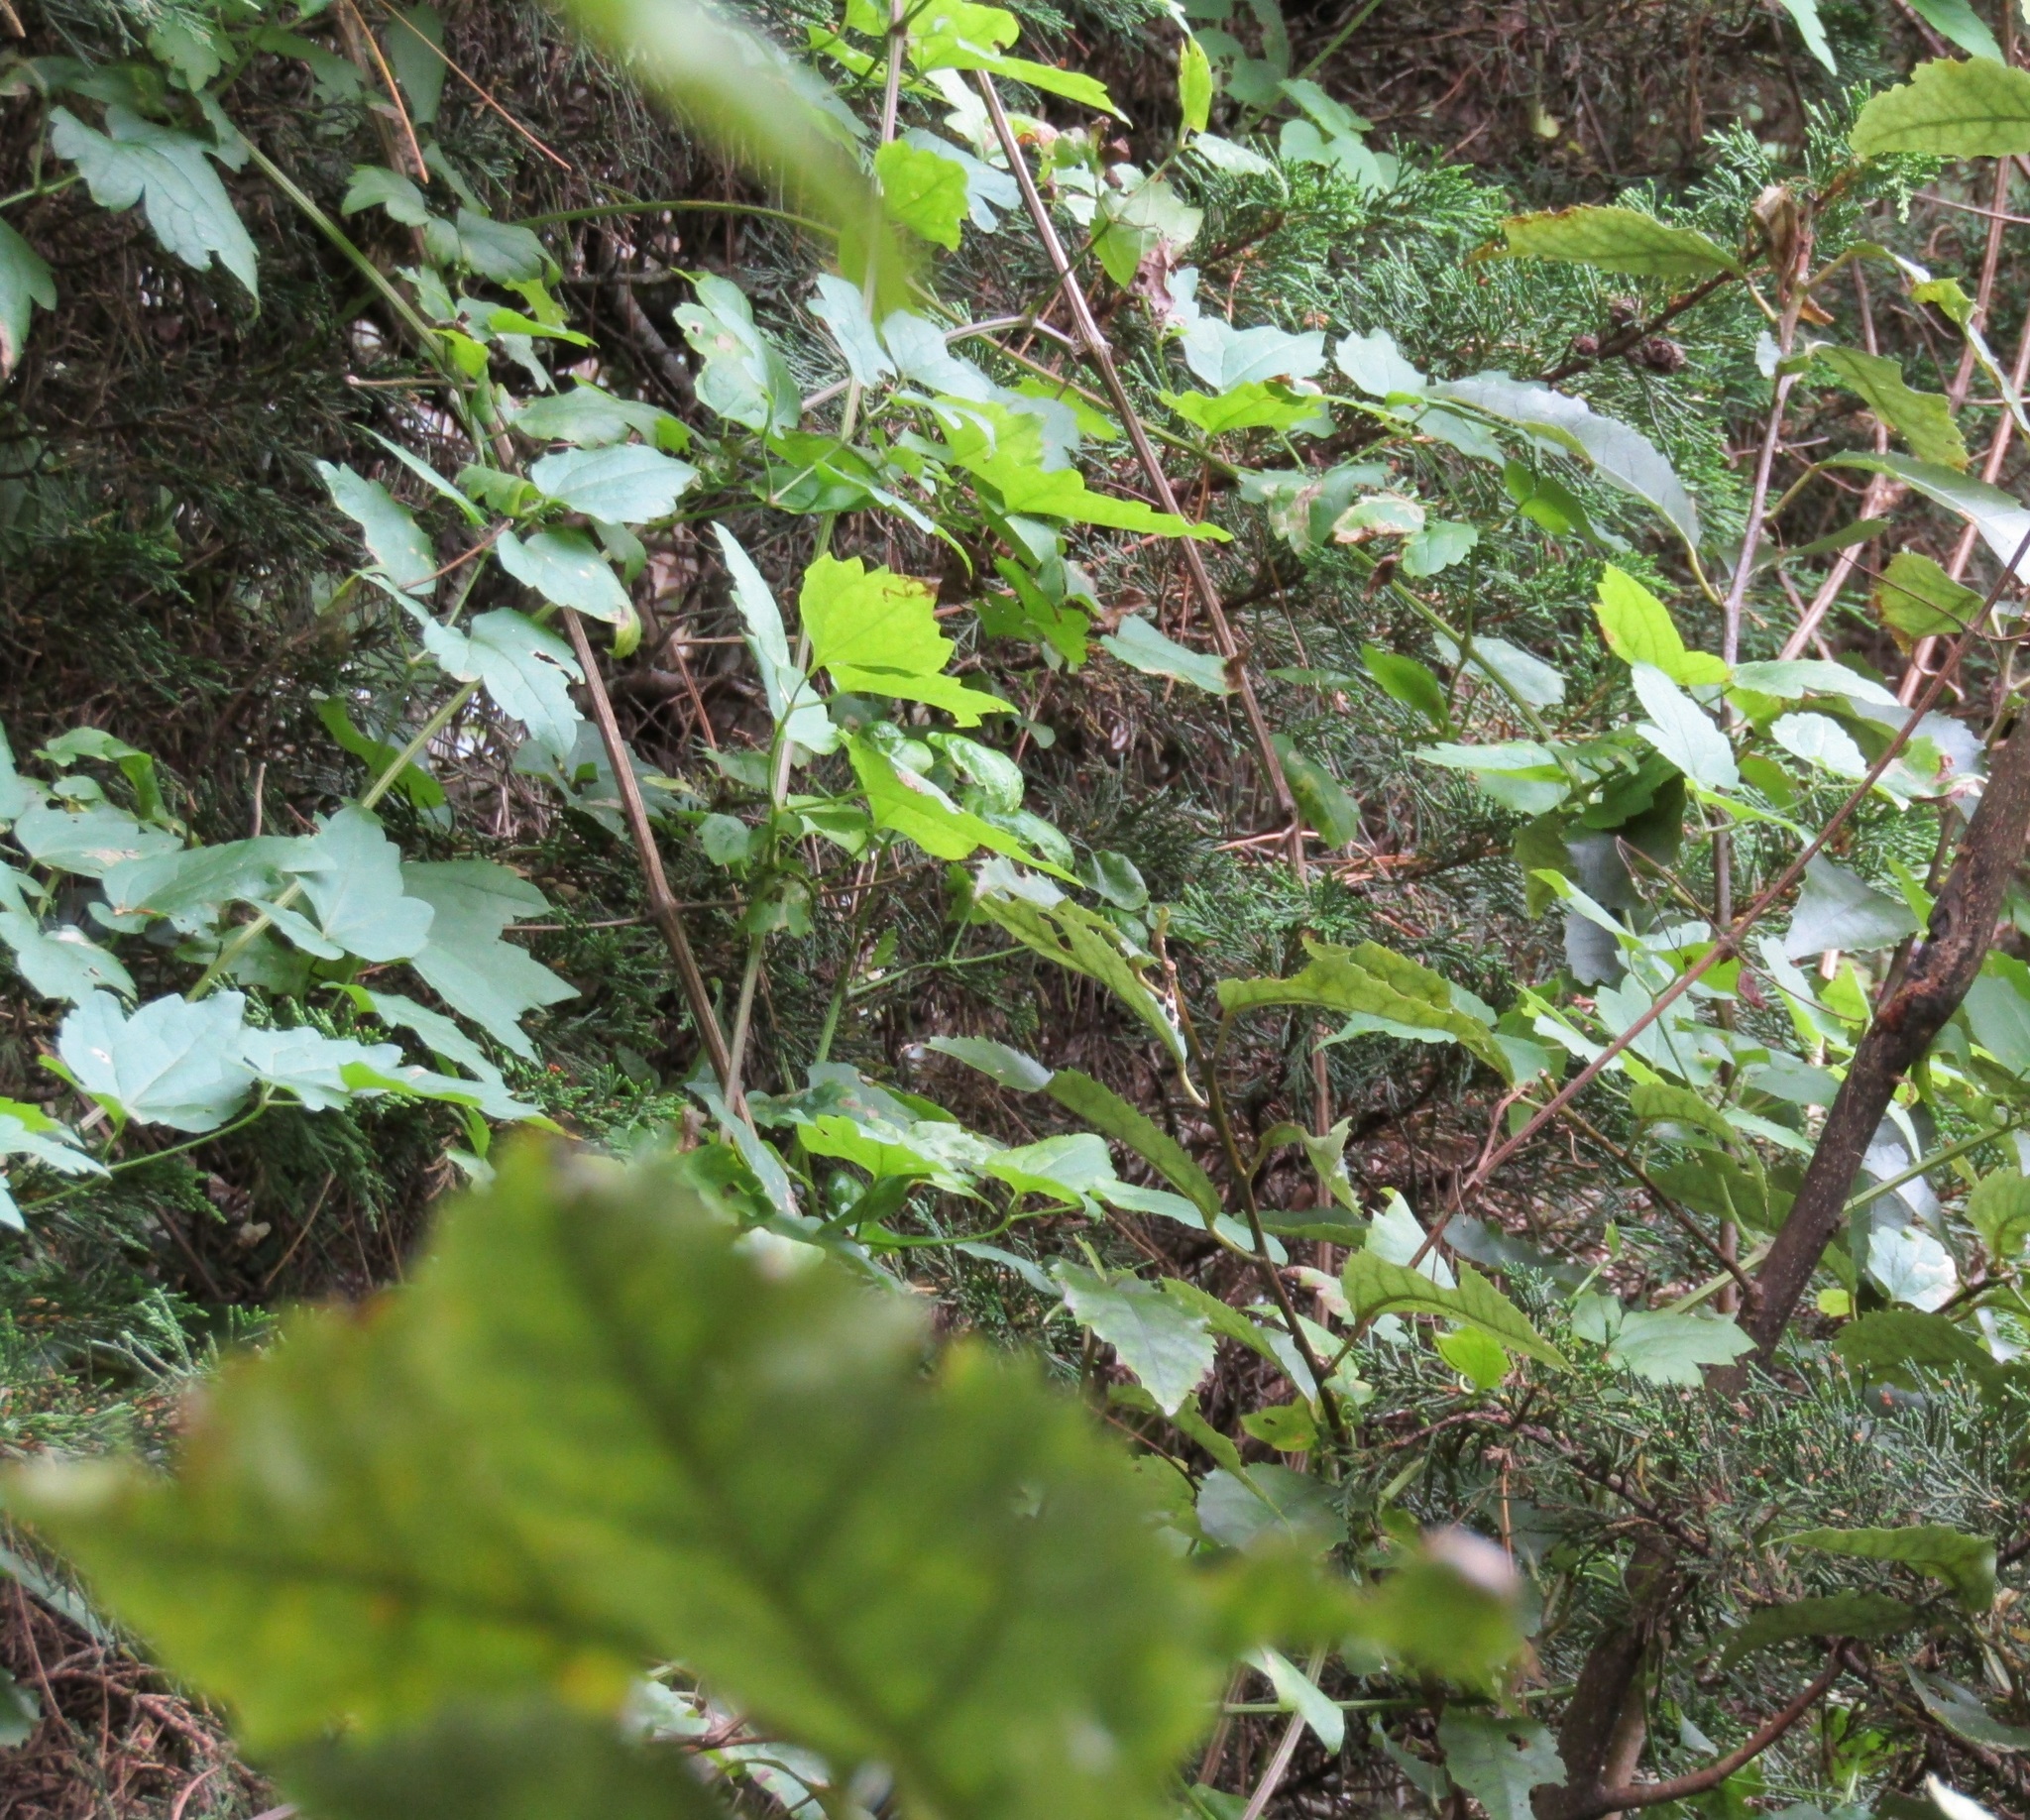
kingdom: Plantae
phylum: Tracheophyta
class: Magnoliopsida
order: Ranunculales
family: Ranunculaceae
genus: Clematis
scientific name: Clematis vitalba
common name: Evergreen clematis
